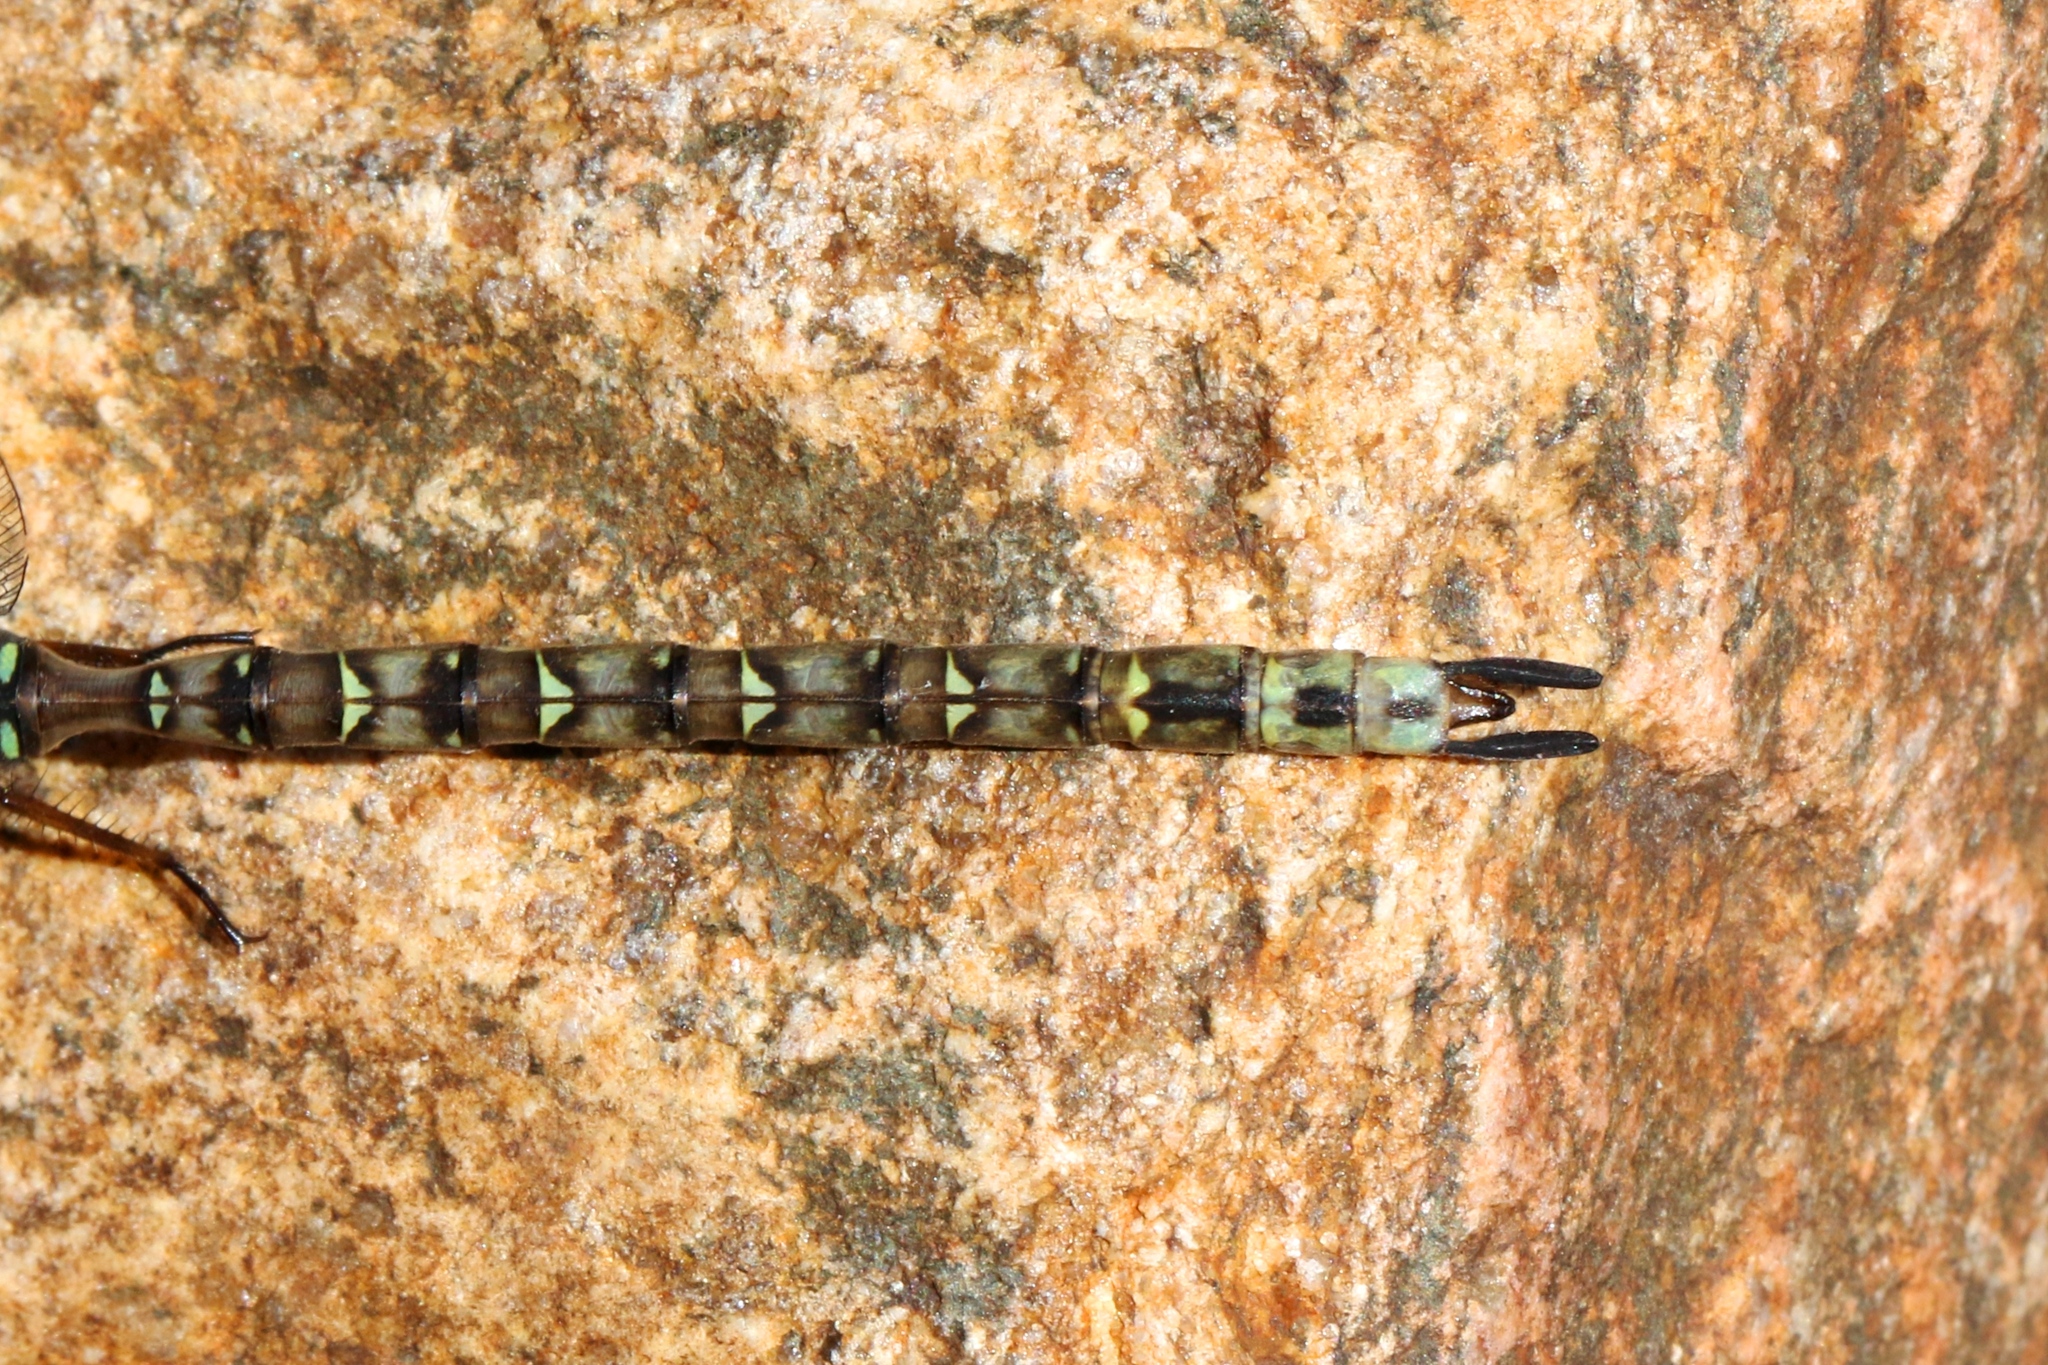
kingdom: Animalia
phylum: Arthropoda
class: Insecta
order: Odonata
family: Aeshnidae
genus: Boyeria
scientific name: Boyeria grafiana
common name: Ocellated darner
